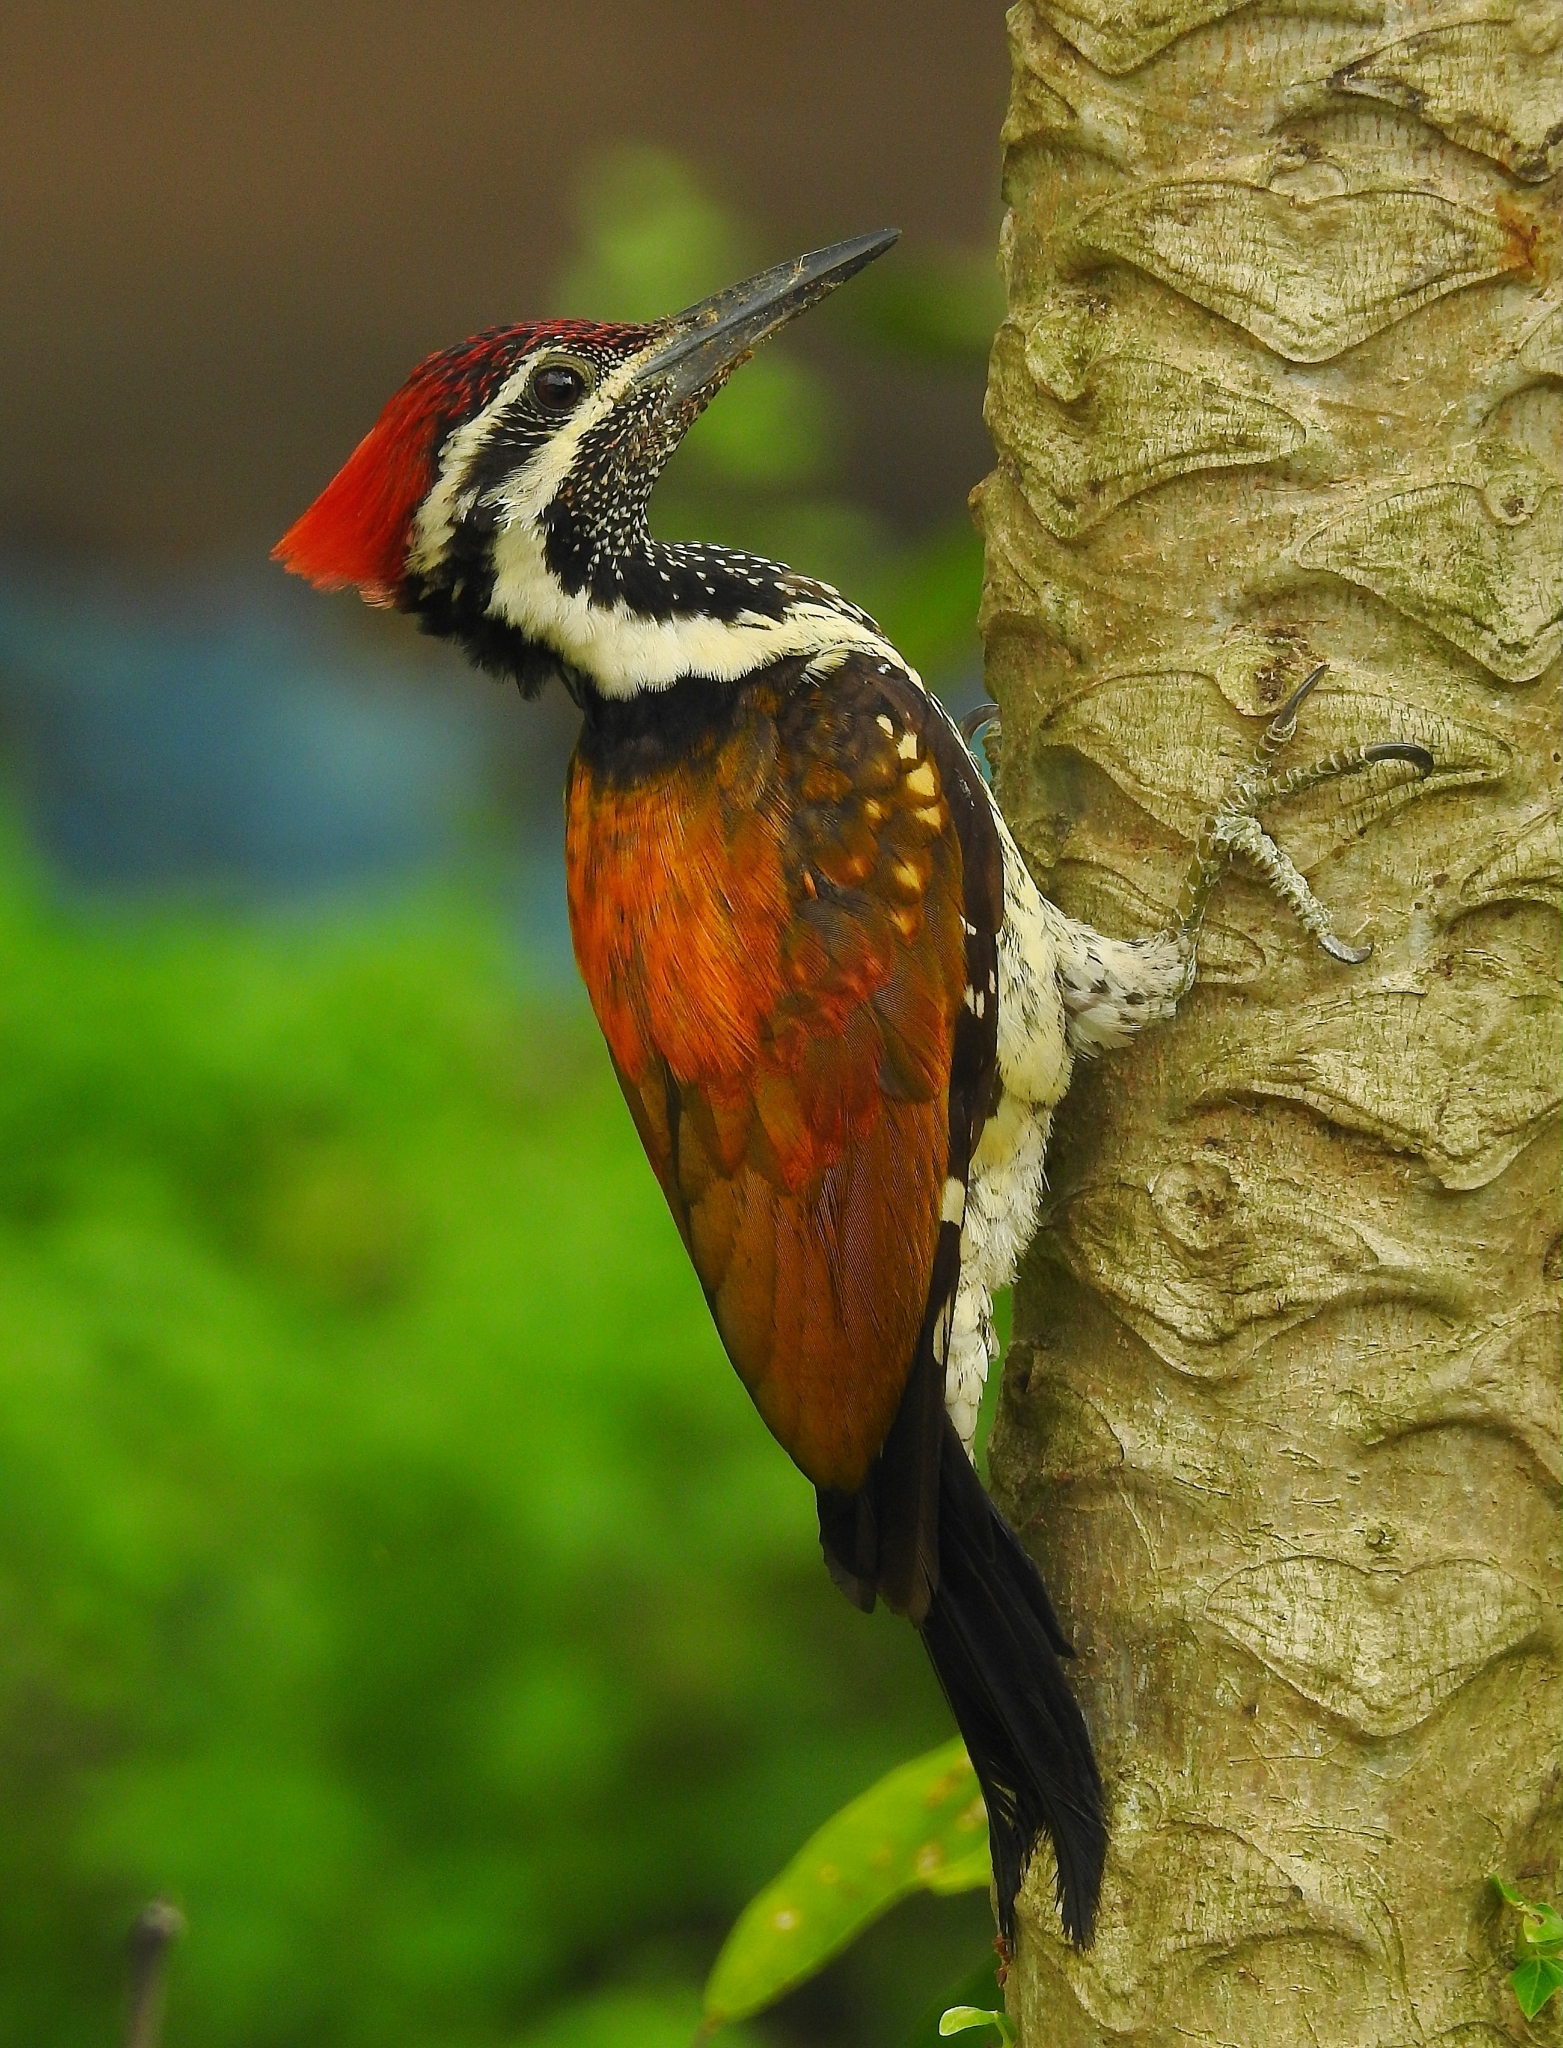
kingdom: Animalia
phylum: Chordata
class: Aves
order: Piciformes
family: Picidae
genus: Dinopium
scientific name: Dinopium benghalense
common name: Black-rumped flameback
